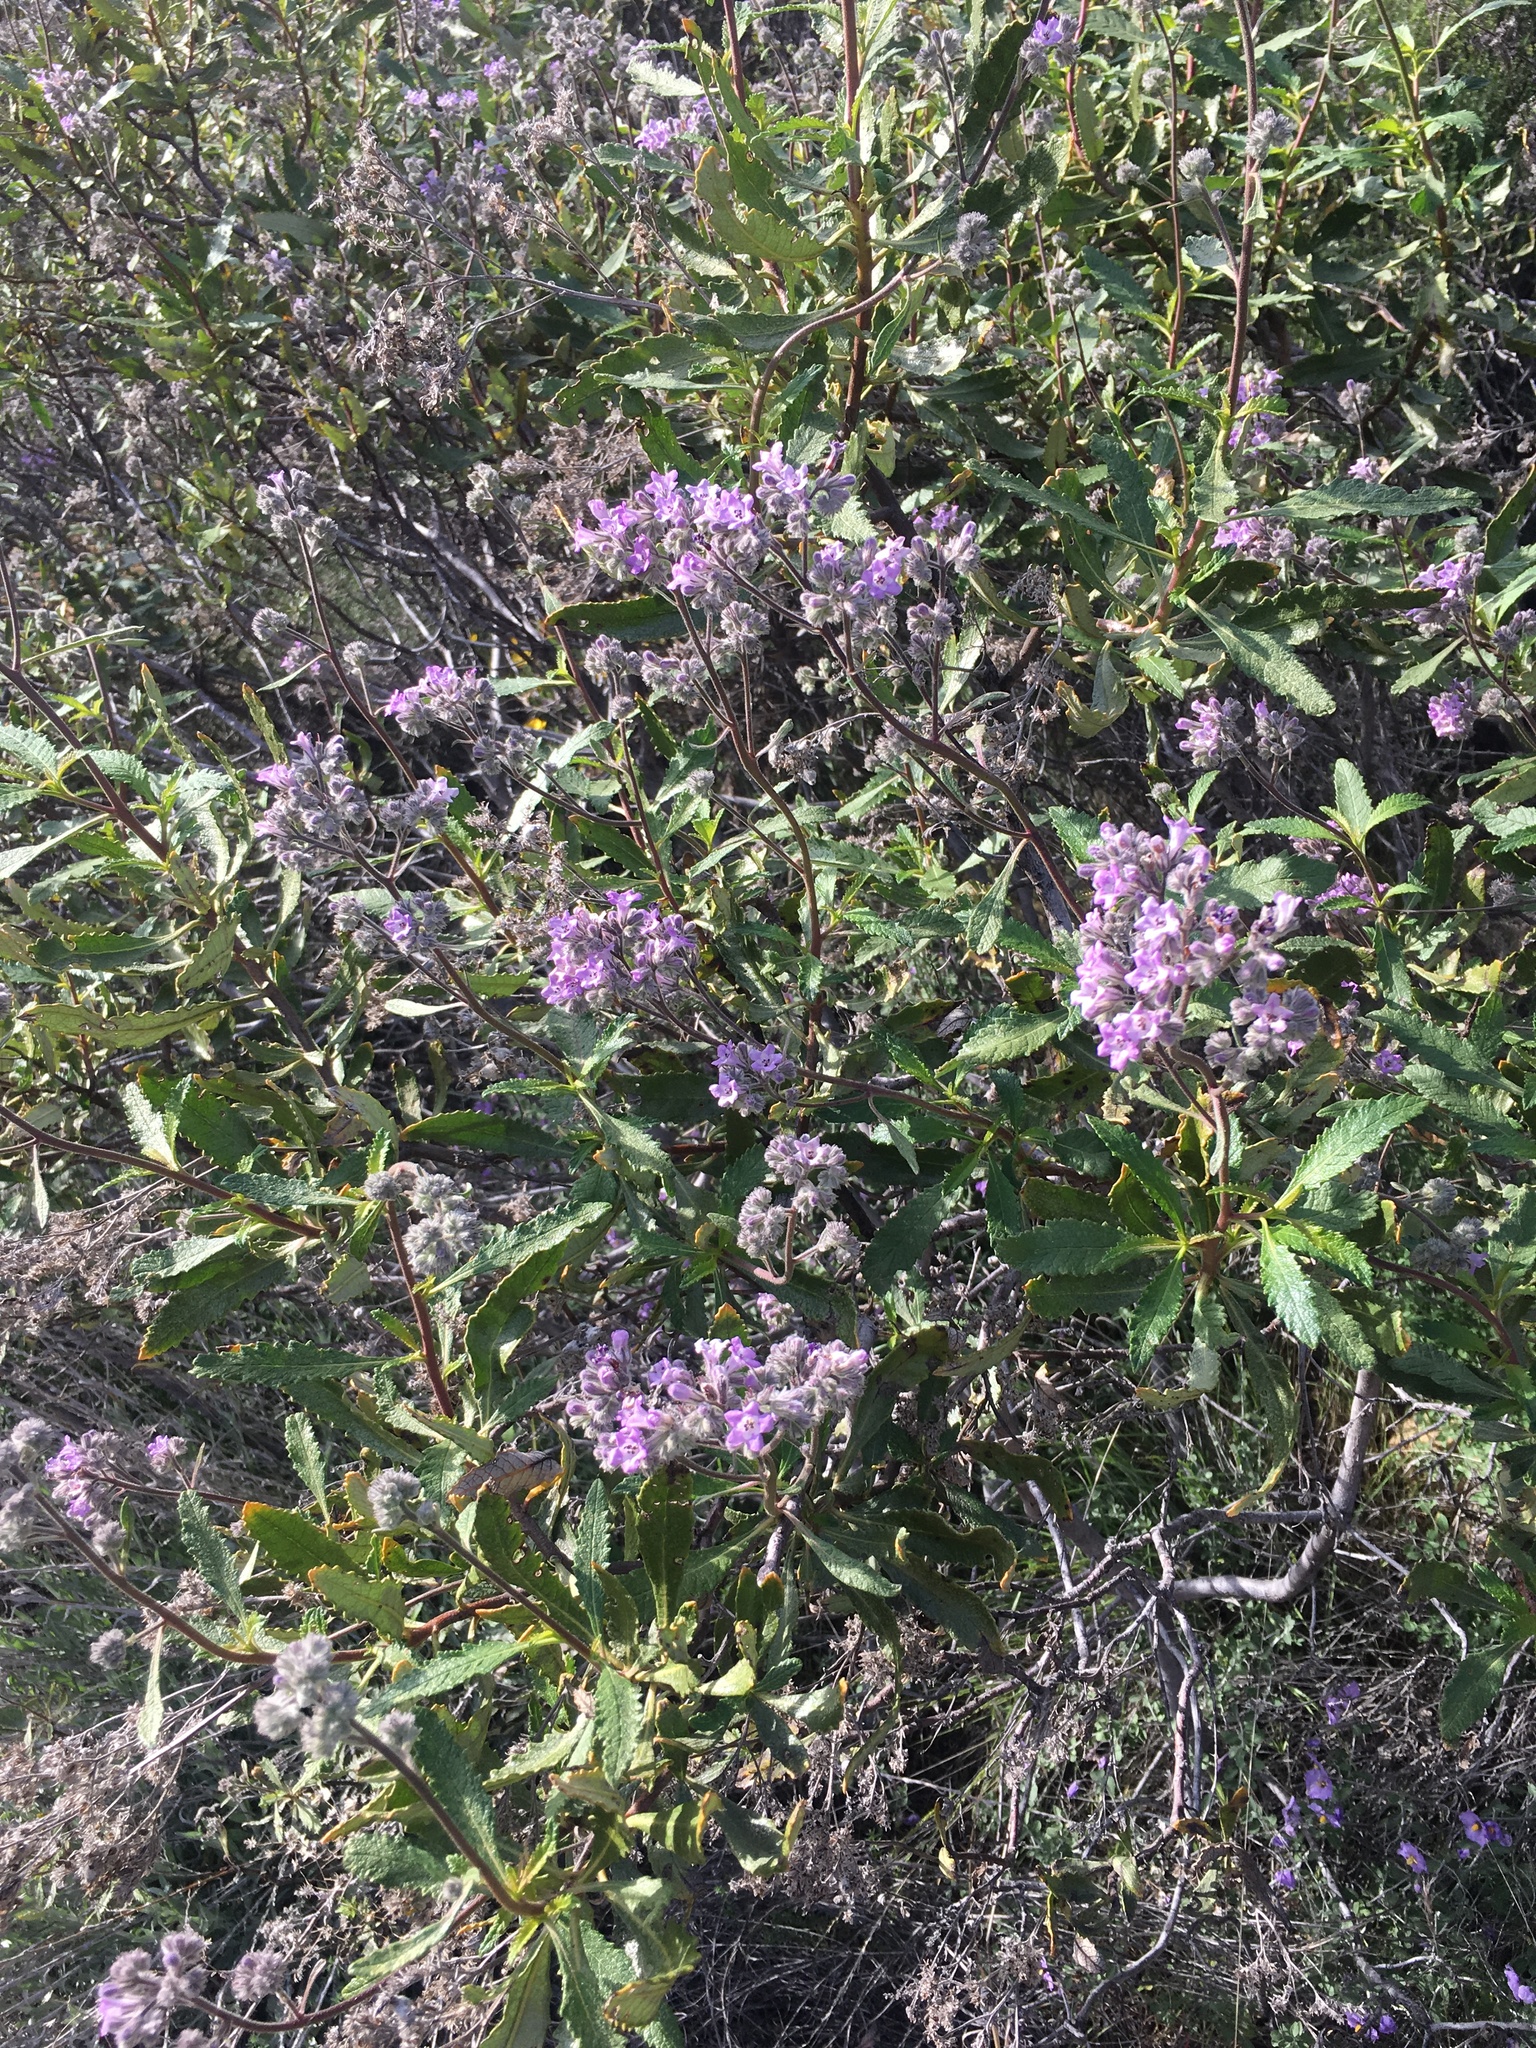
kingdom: Plantae
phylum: Tracheophyta
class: Magnoliopsida
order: Boraginales
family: Namaceae
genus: Eriodictyon
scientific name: Eriodictyon crassifolium
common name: Thick-leaf yerba-santa
